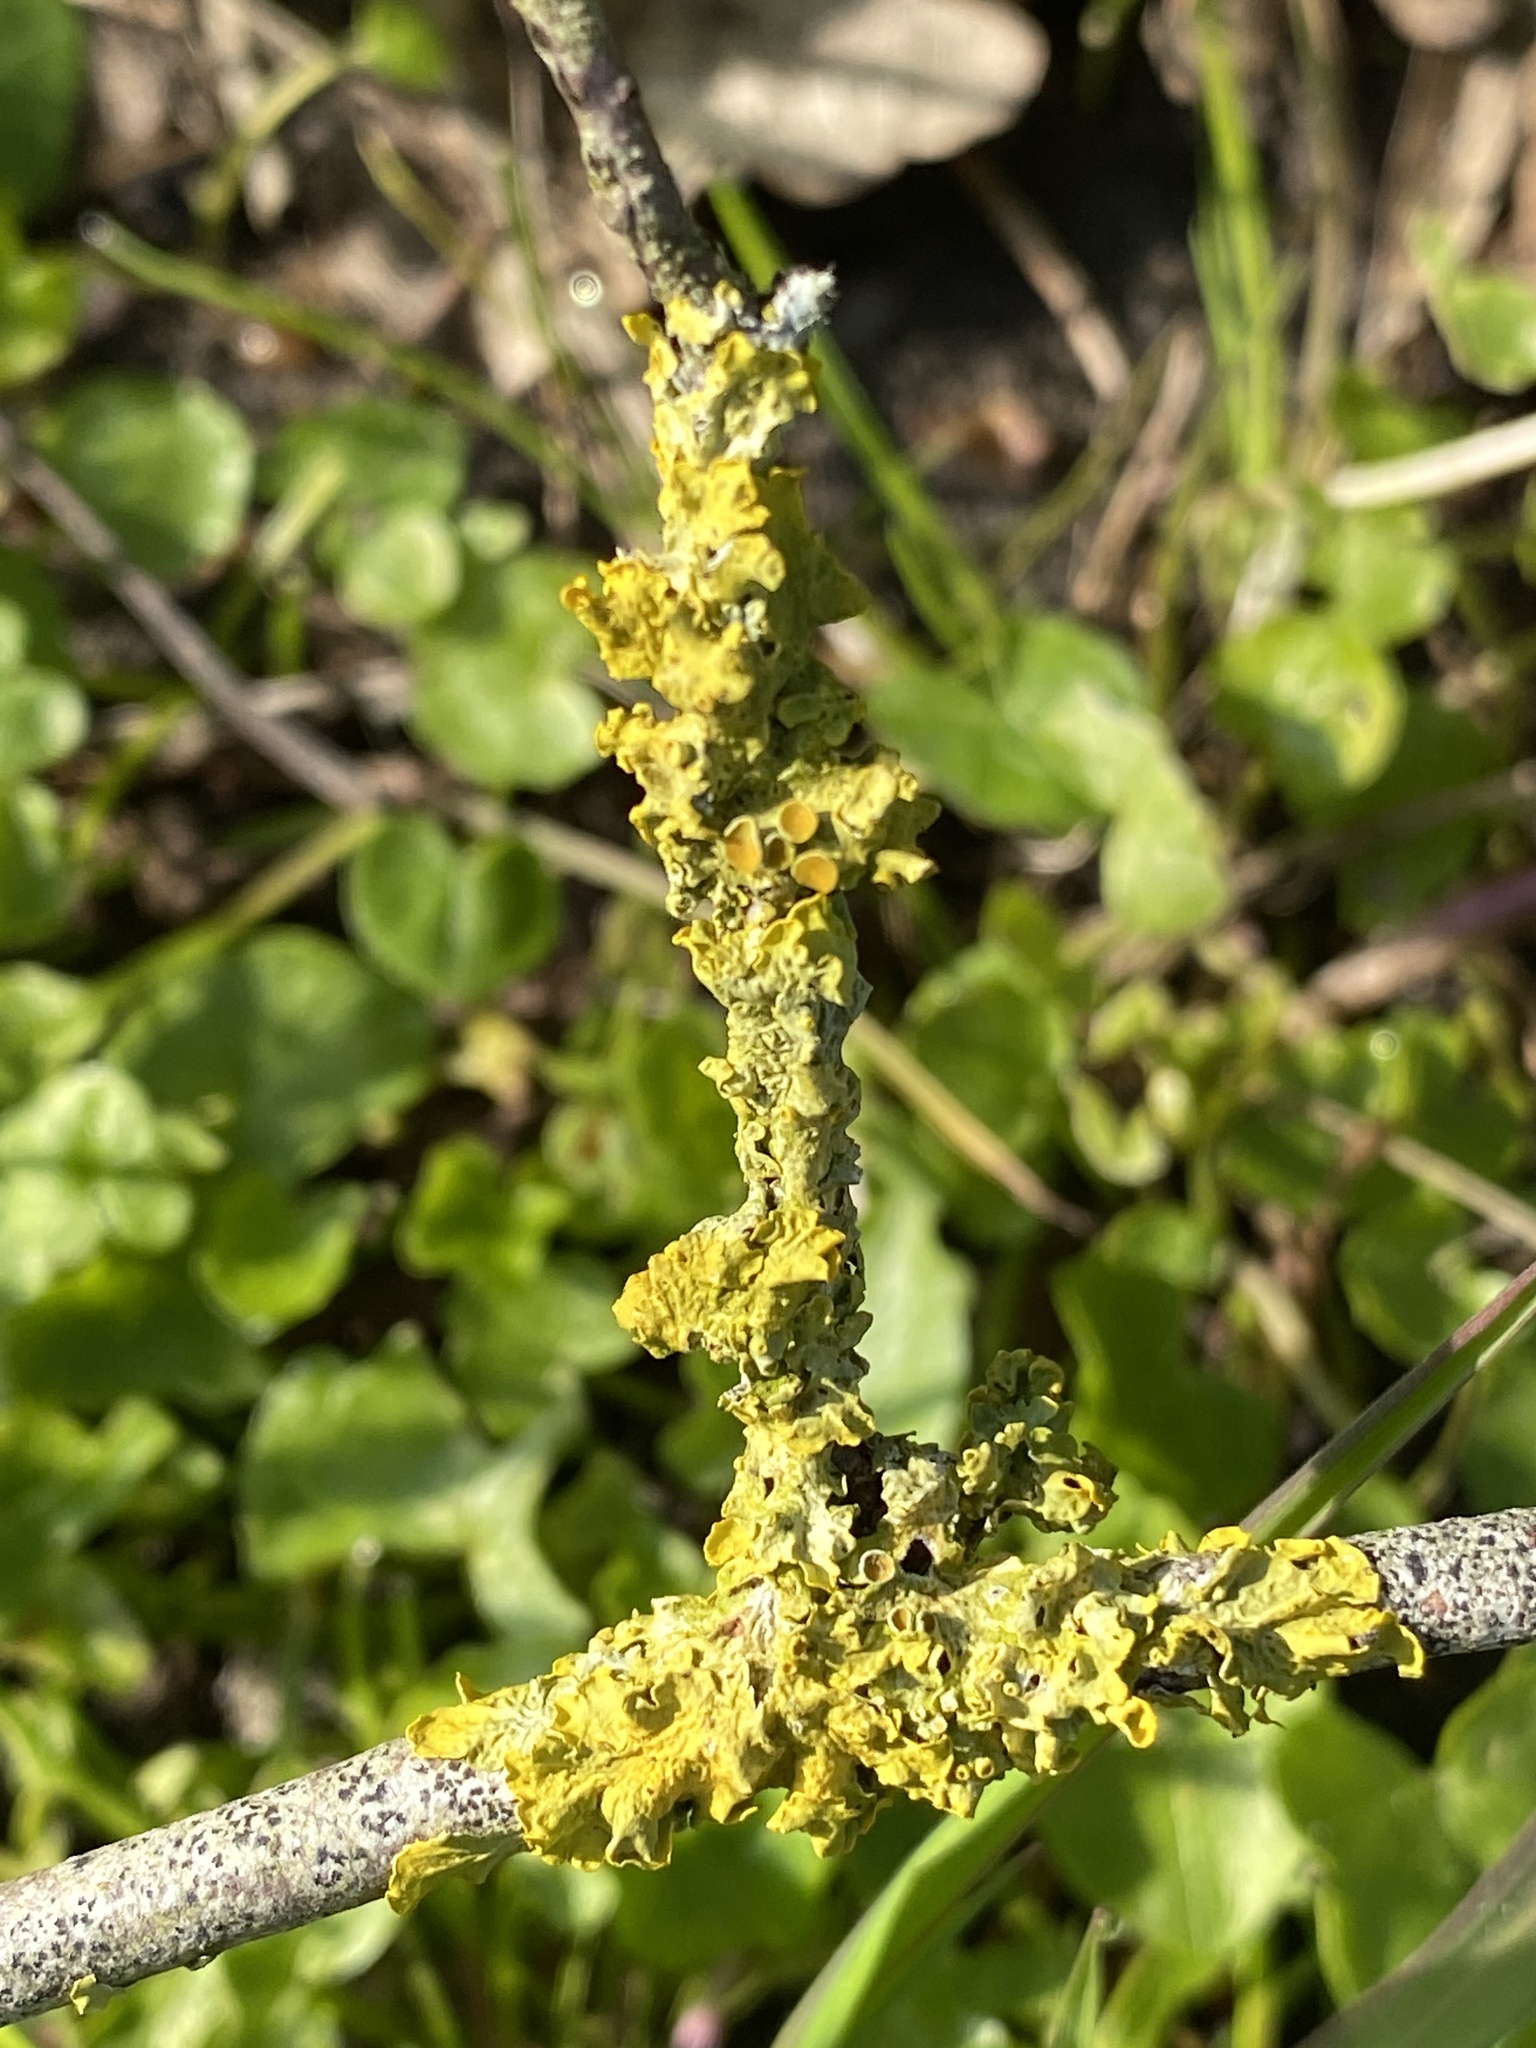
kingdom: Fungi
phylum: Ascomycota
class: Lecanoromycetes
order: Teloschistales
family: Teloschistaceae
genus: Xanthoria
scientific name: Xanthoria parietina
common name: Common orange lichen
